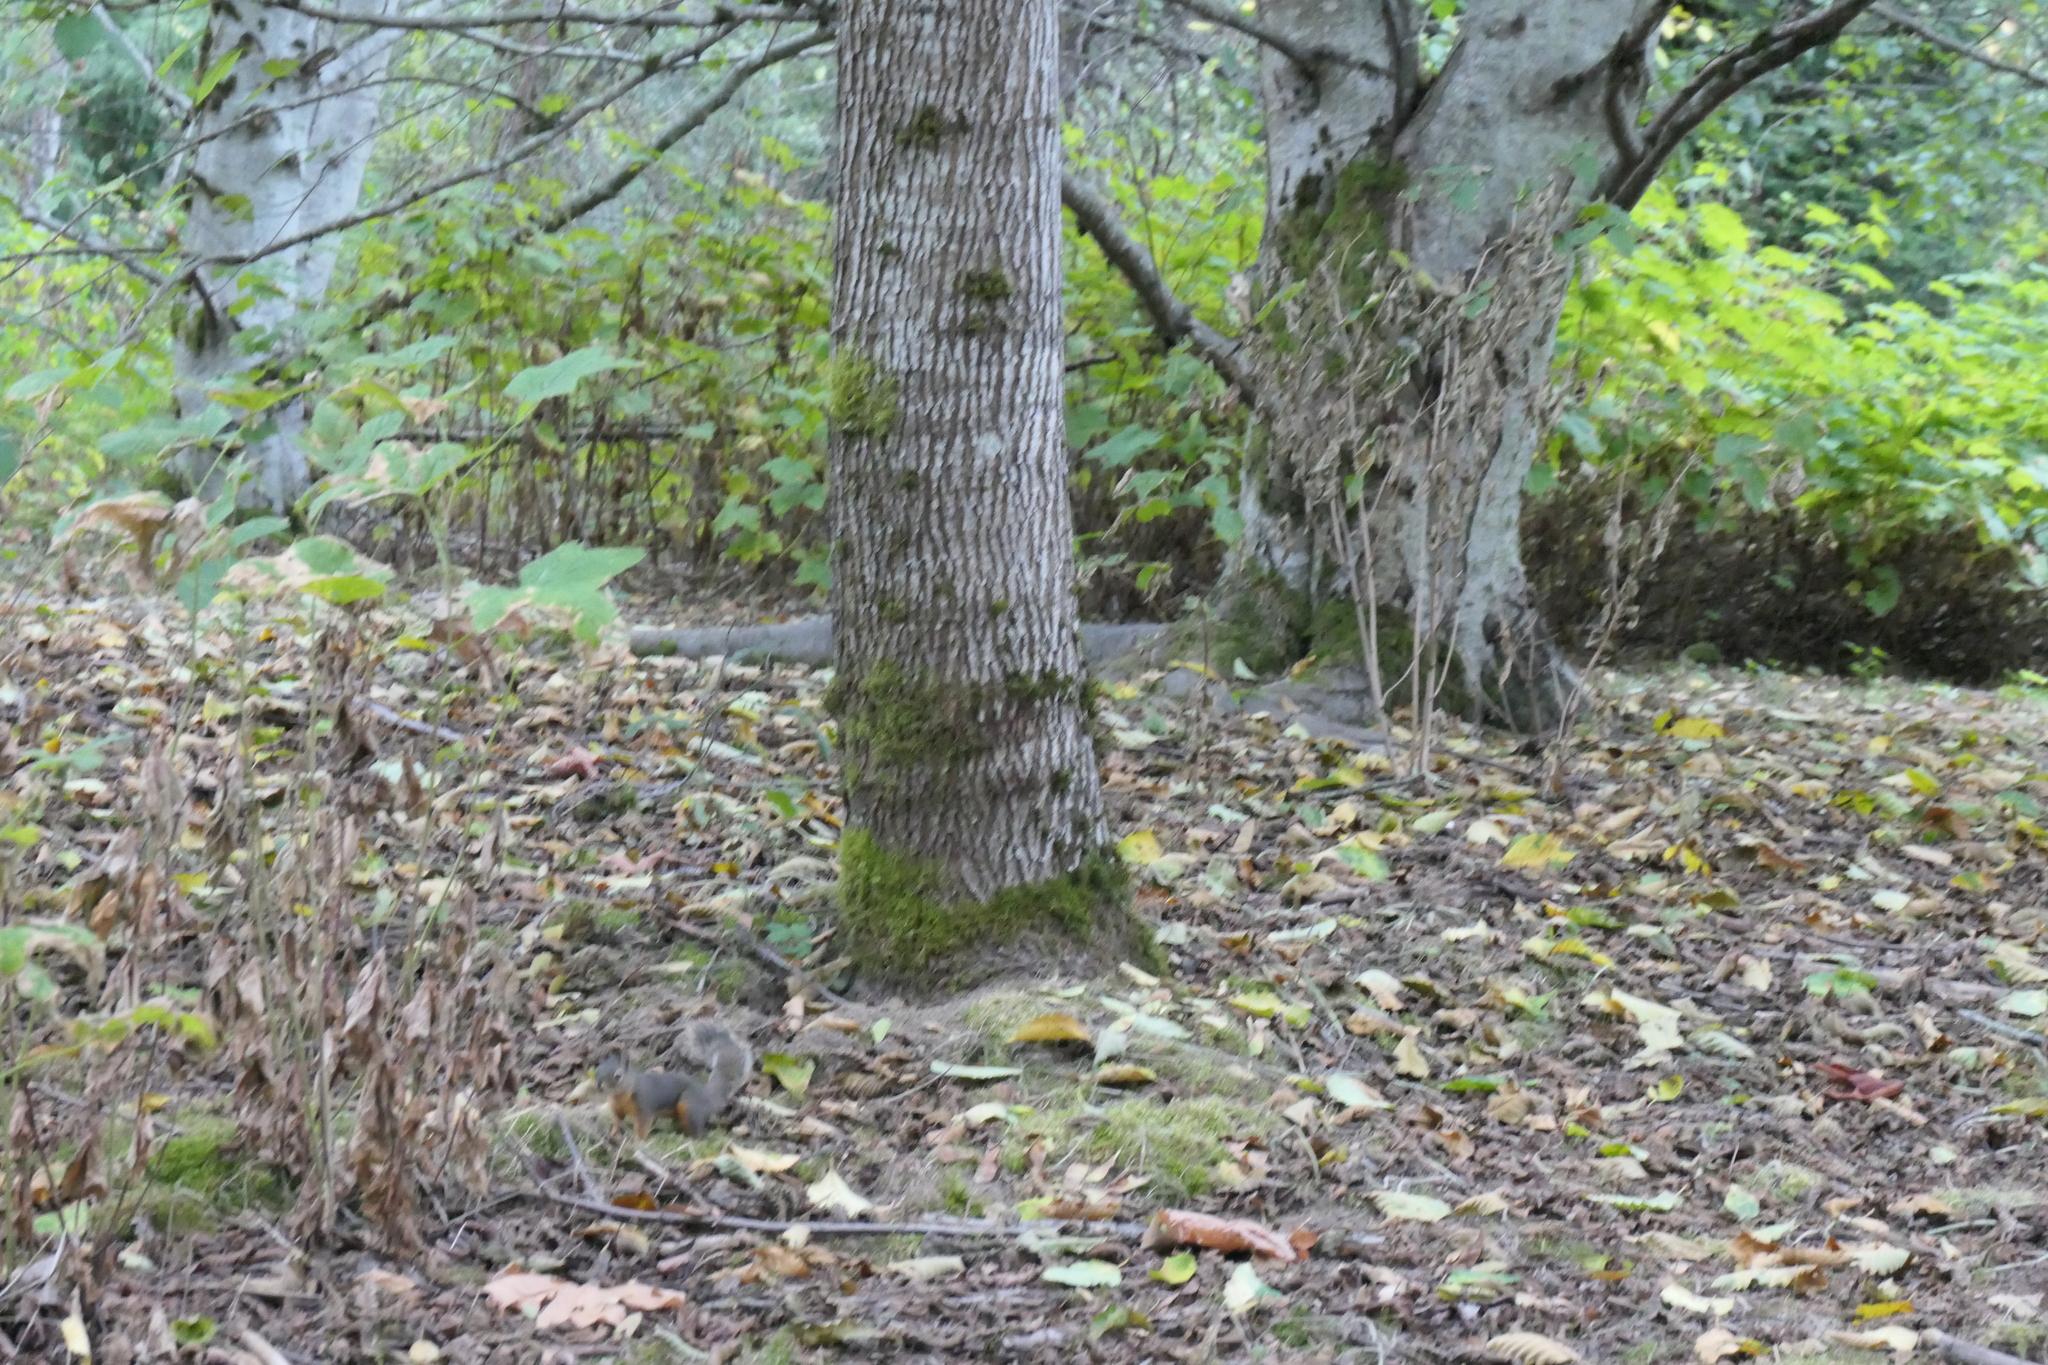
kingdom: Animalia
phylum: Chordata
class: Mammalia
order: Rodentia
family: Sciuridae
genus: Tamiasciurus
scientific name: Tamiasciurus douglasii
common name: Douglas's squirrel
